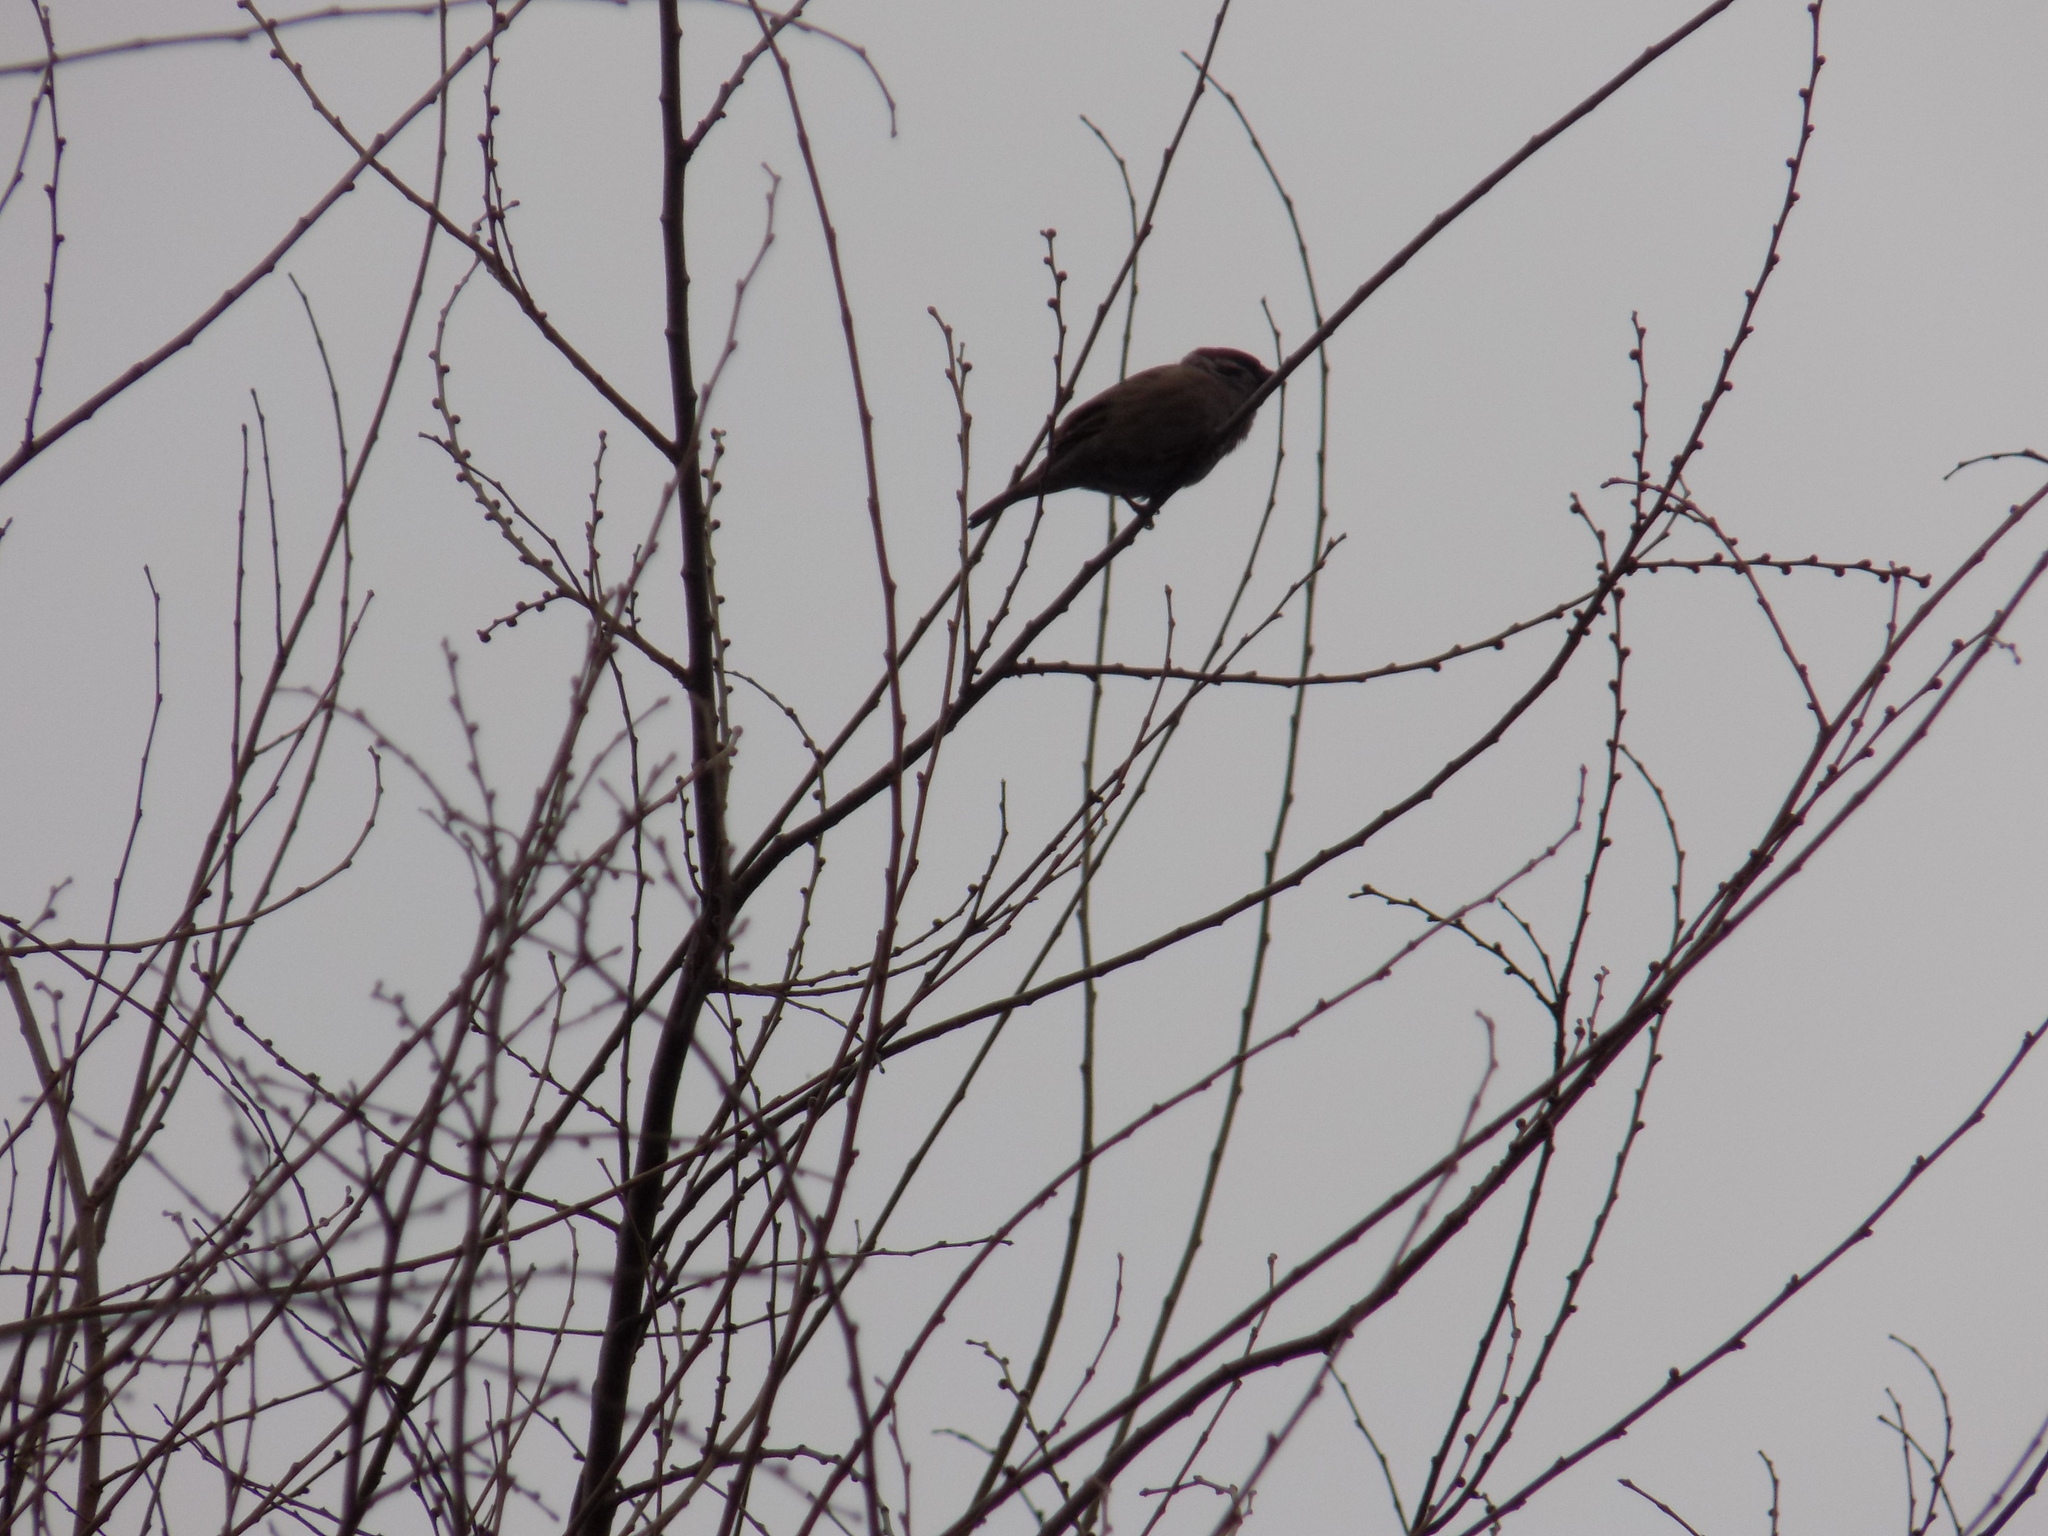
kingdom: Animalia
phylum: Chordata
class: Aves
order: Passeriformes
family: Passeridae
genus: Passer
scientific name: Passer montanus
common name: Eurasian tree sparrow
